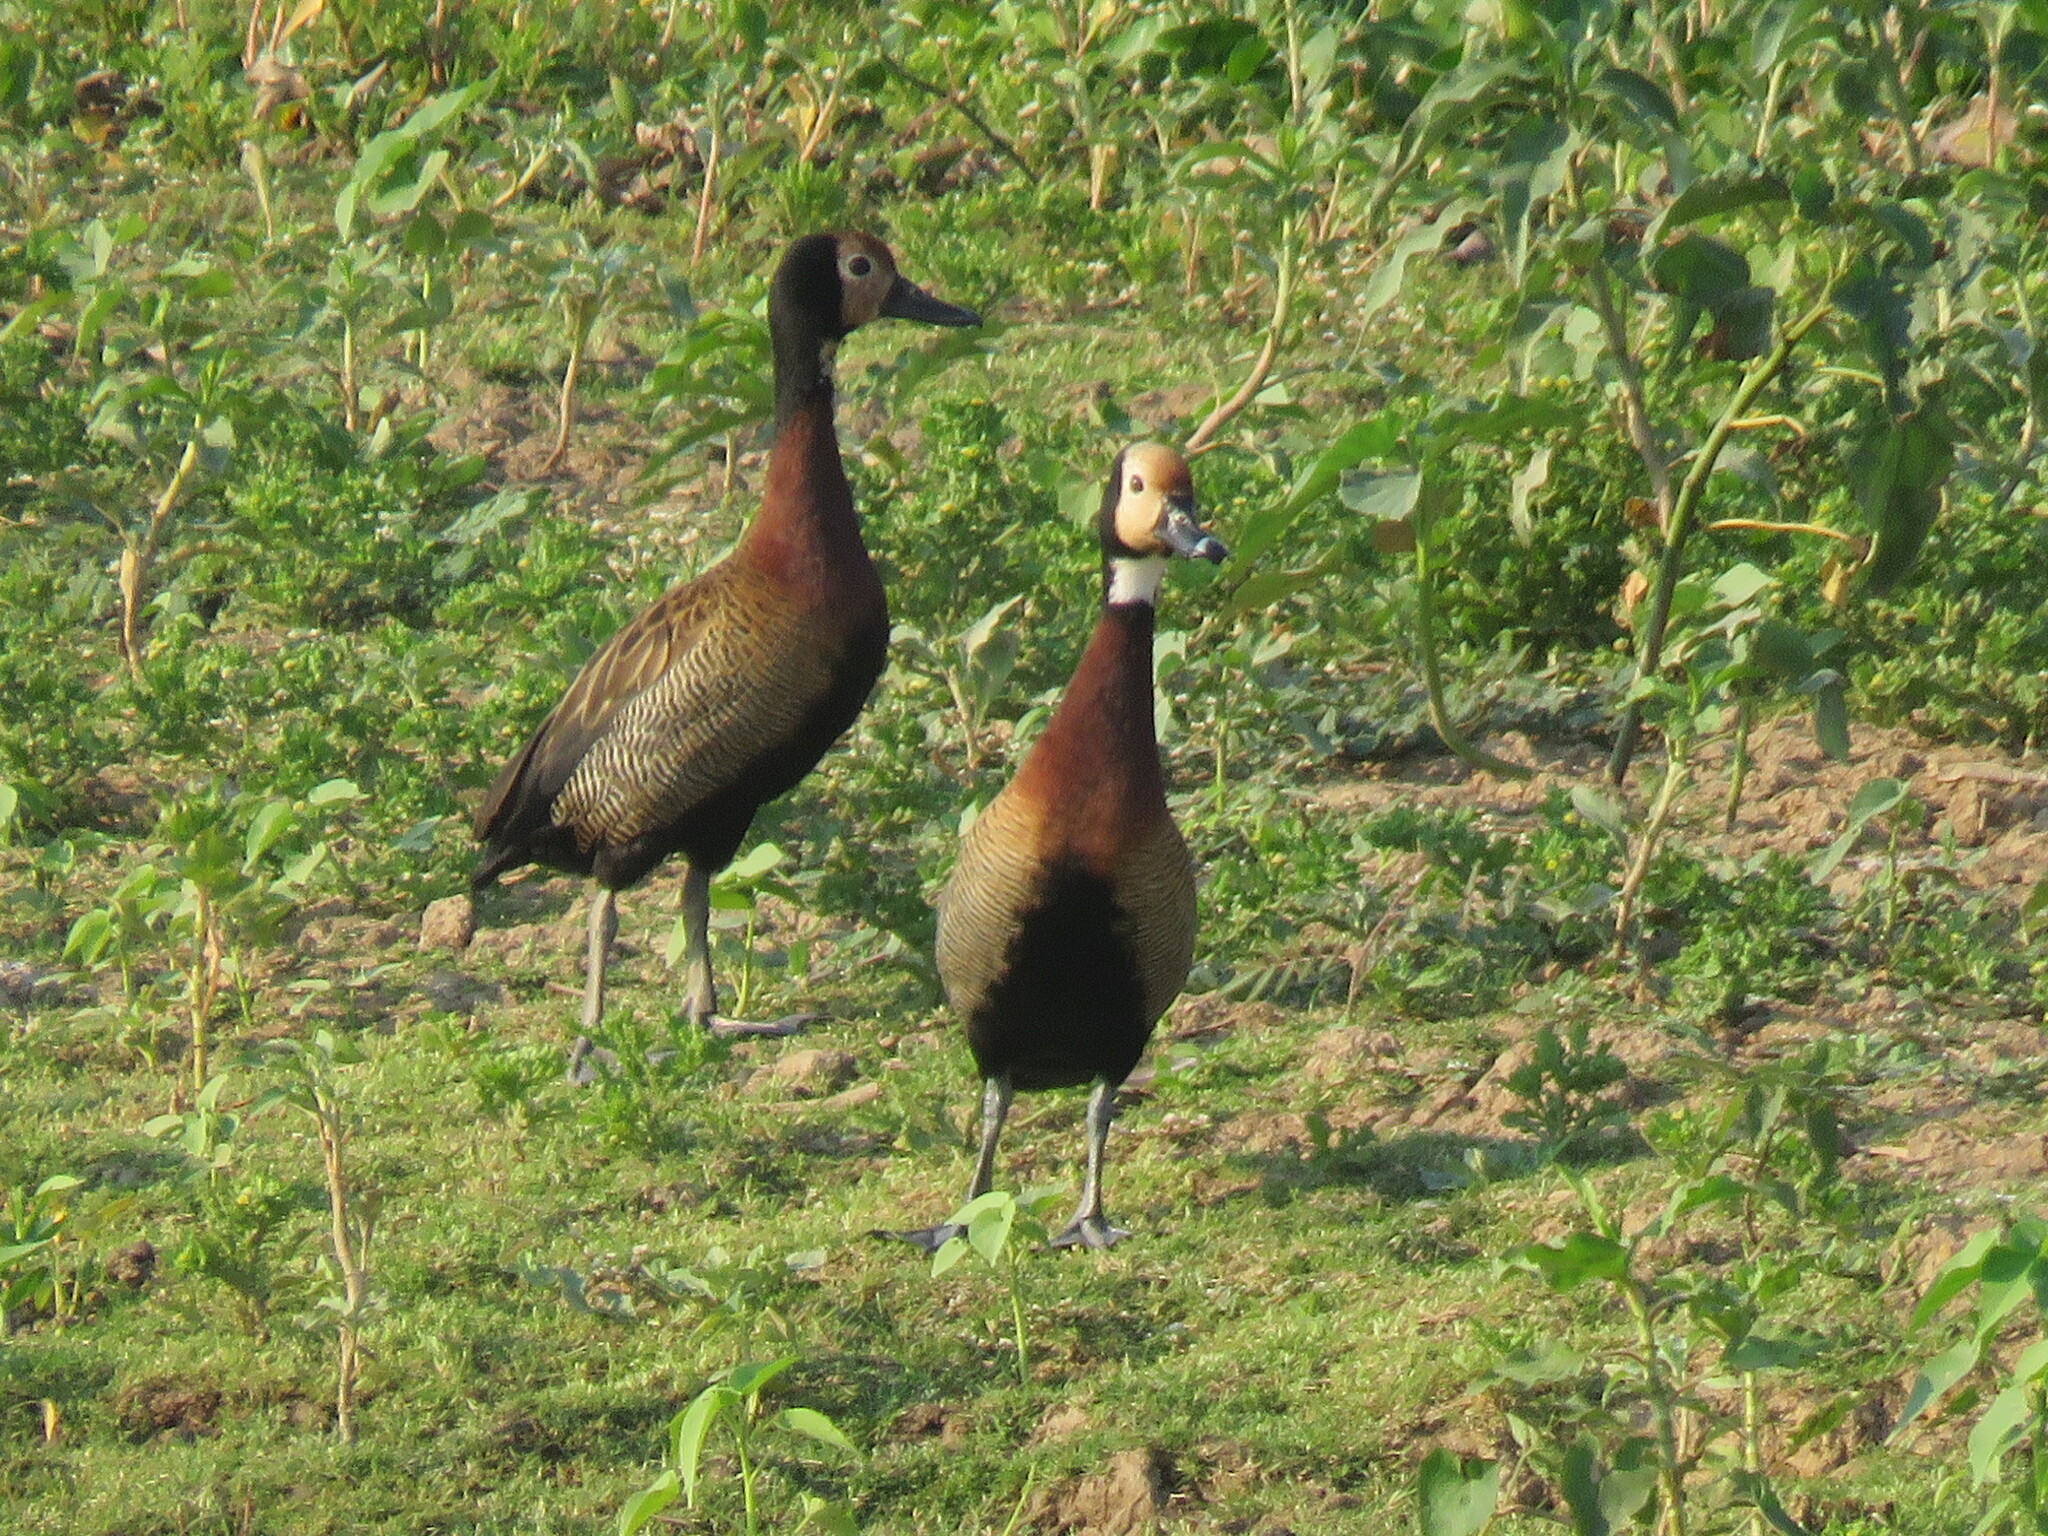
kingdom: Animalia
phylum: Chordata
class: Aves
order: Anseriformes
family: Anatidae
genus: Dendrocygna
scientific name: Dendrocygna viduata
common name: White-faced whistling duck
